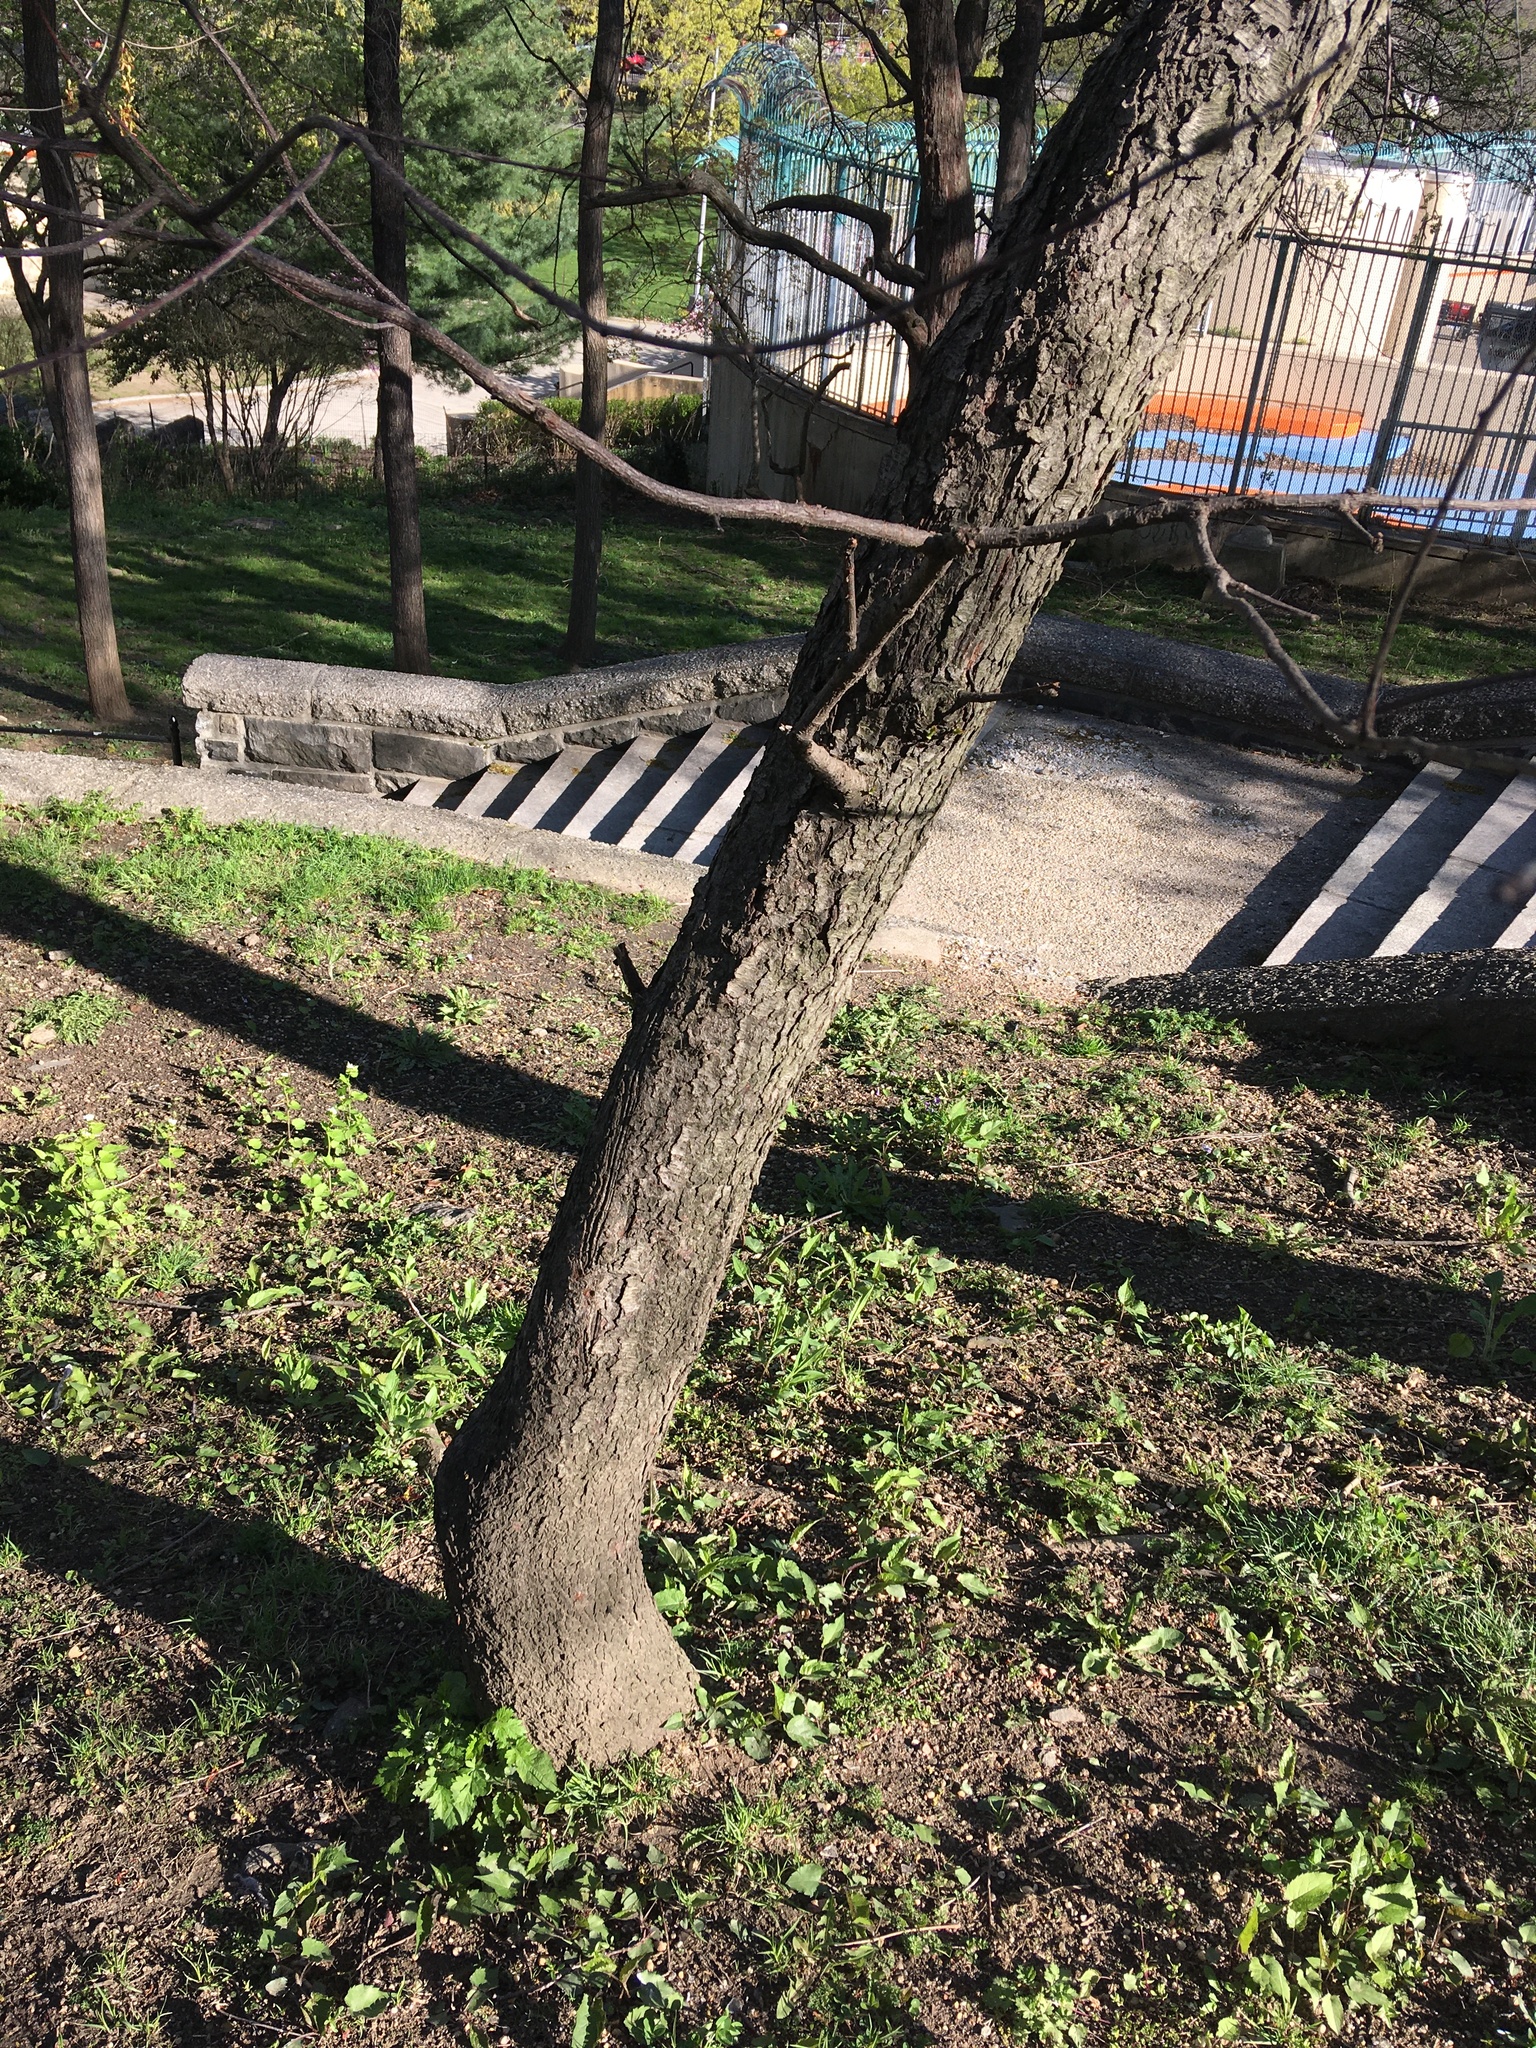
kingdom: Plantae
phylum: Tracheophyta
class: Magnoliopsida
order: Rosales
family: Rosaceae
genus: Prunus
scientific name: Prunus serotina
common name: Black cherry
